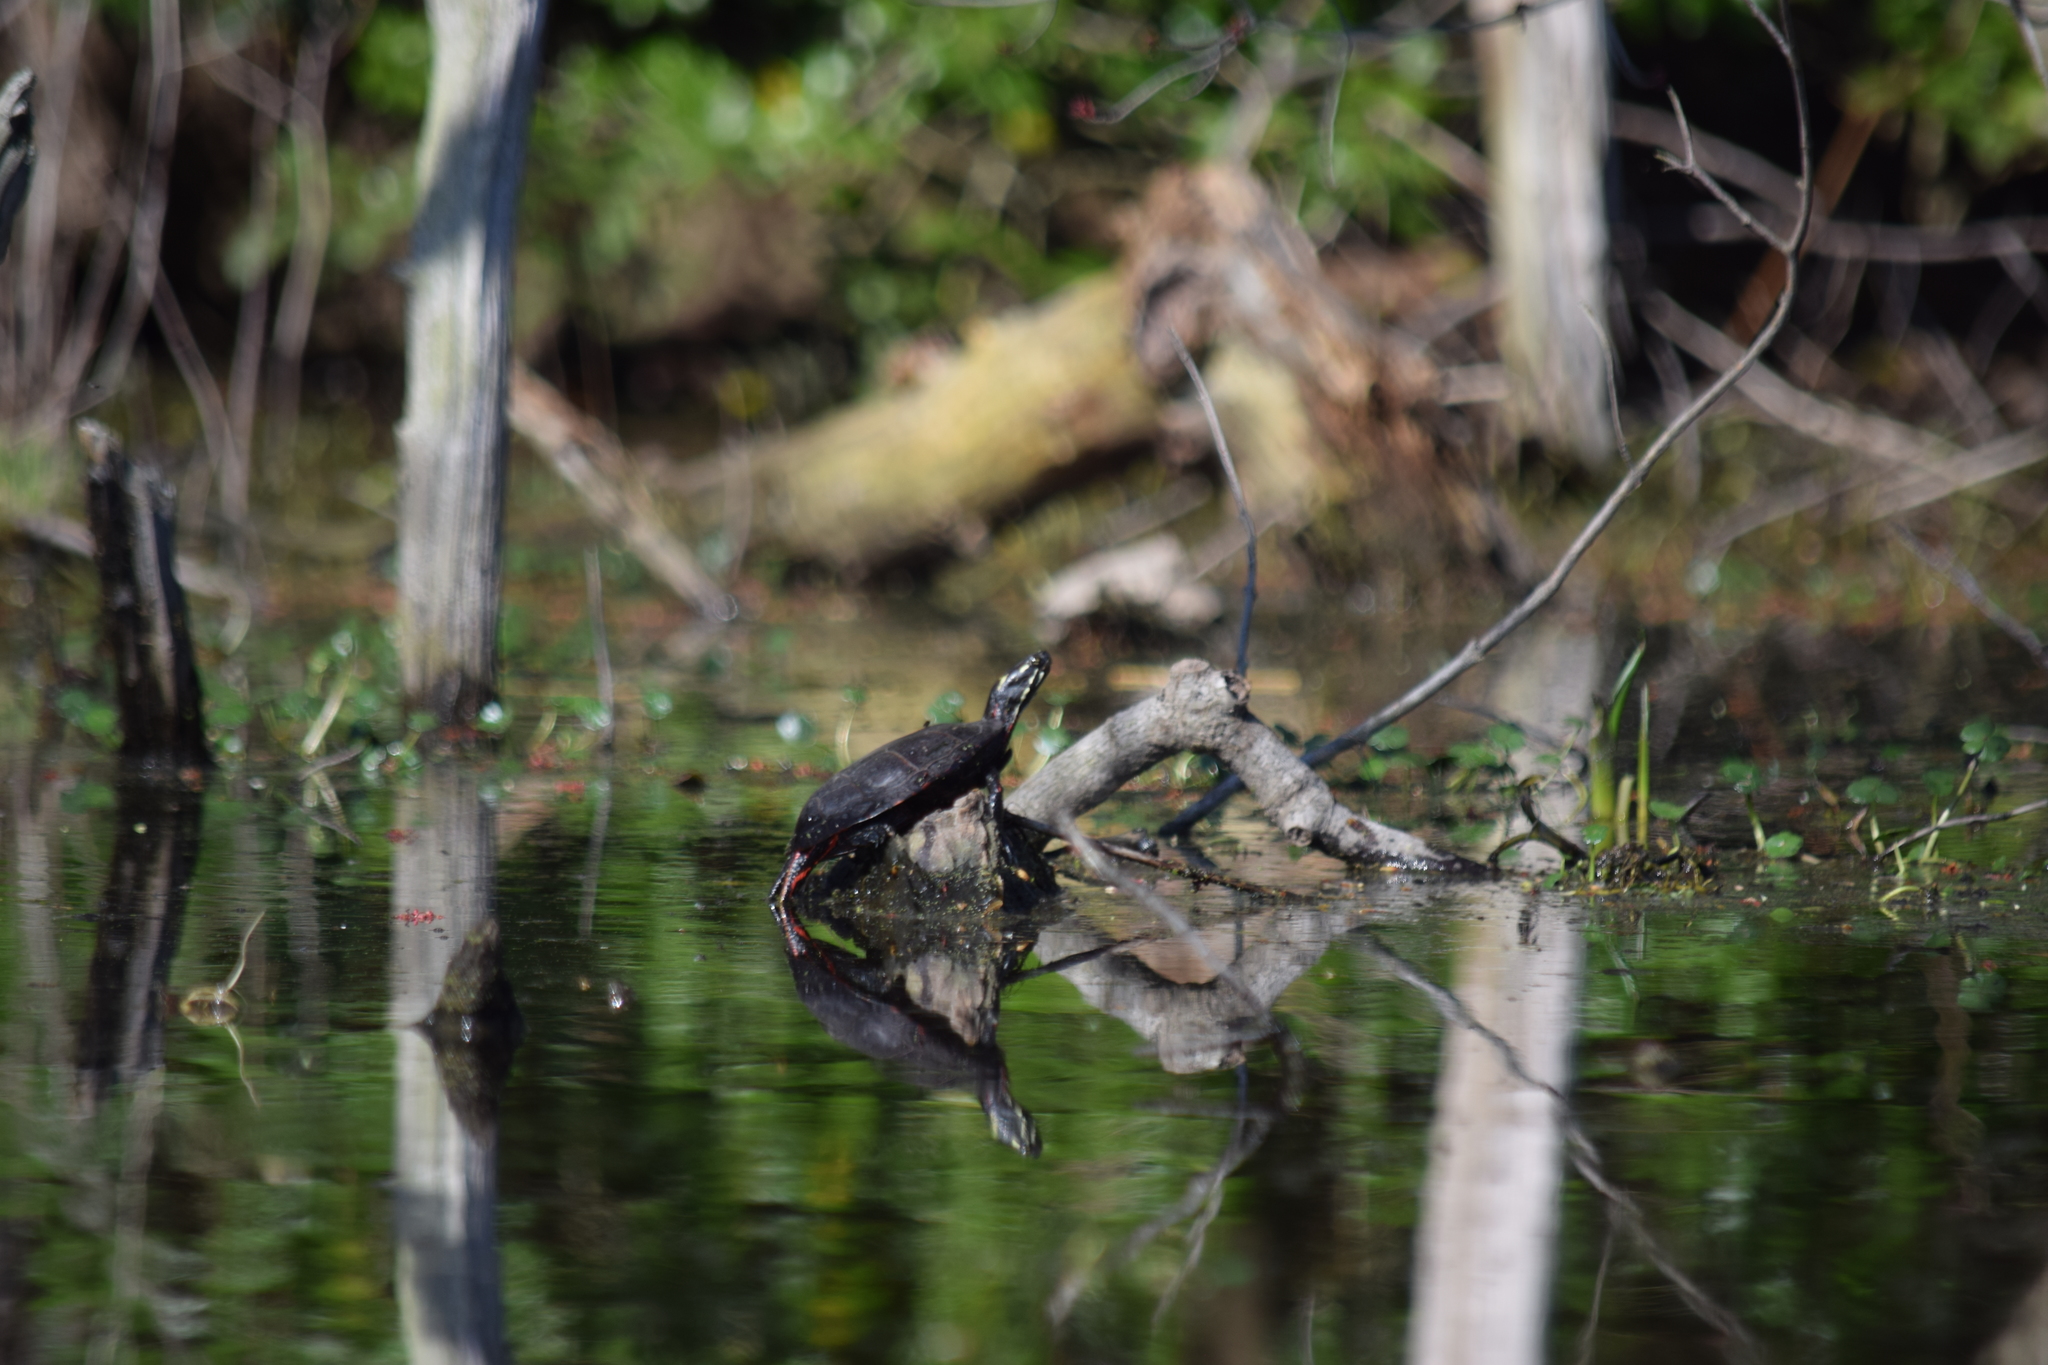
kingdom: Animalia
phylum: Chordata
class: Testudines
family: Emydidae
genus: Chrysemys
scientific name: Chrysemys picta
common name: Painted turtle
